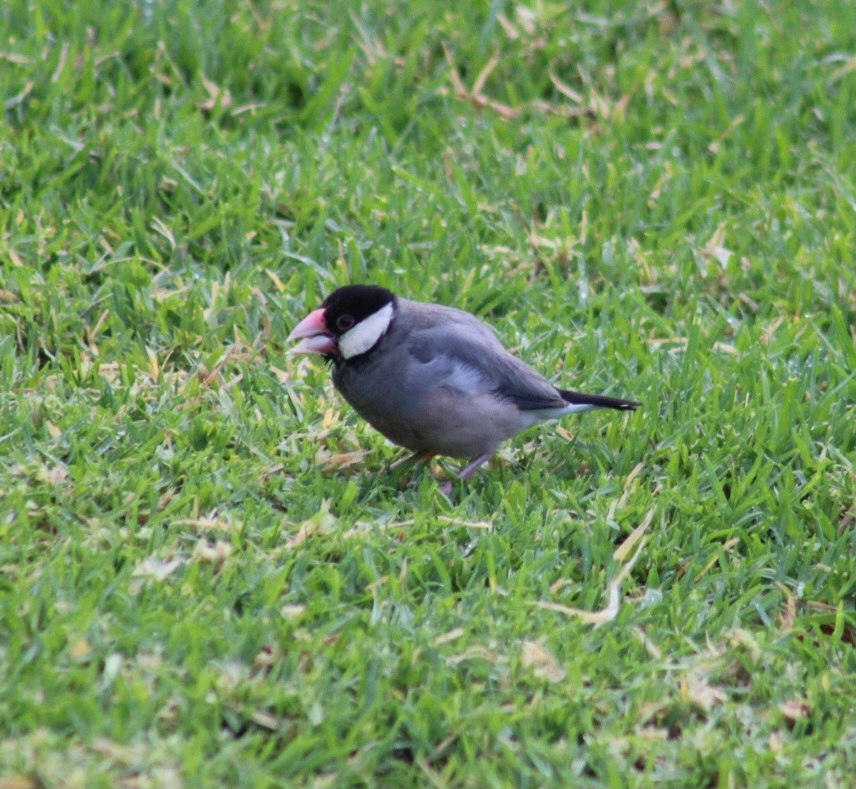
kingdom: Animalia
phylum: Chordata
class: Aves
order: Passeriformes
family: Estrildidae
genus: Lonchura
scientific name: Lonchura oryzivora
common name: Java sparrow
